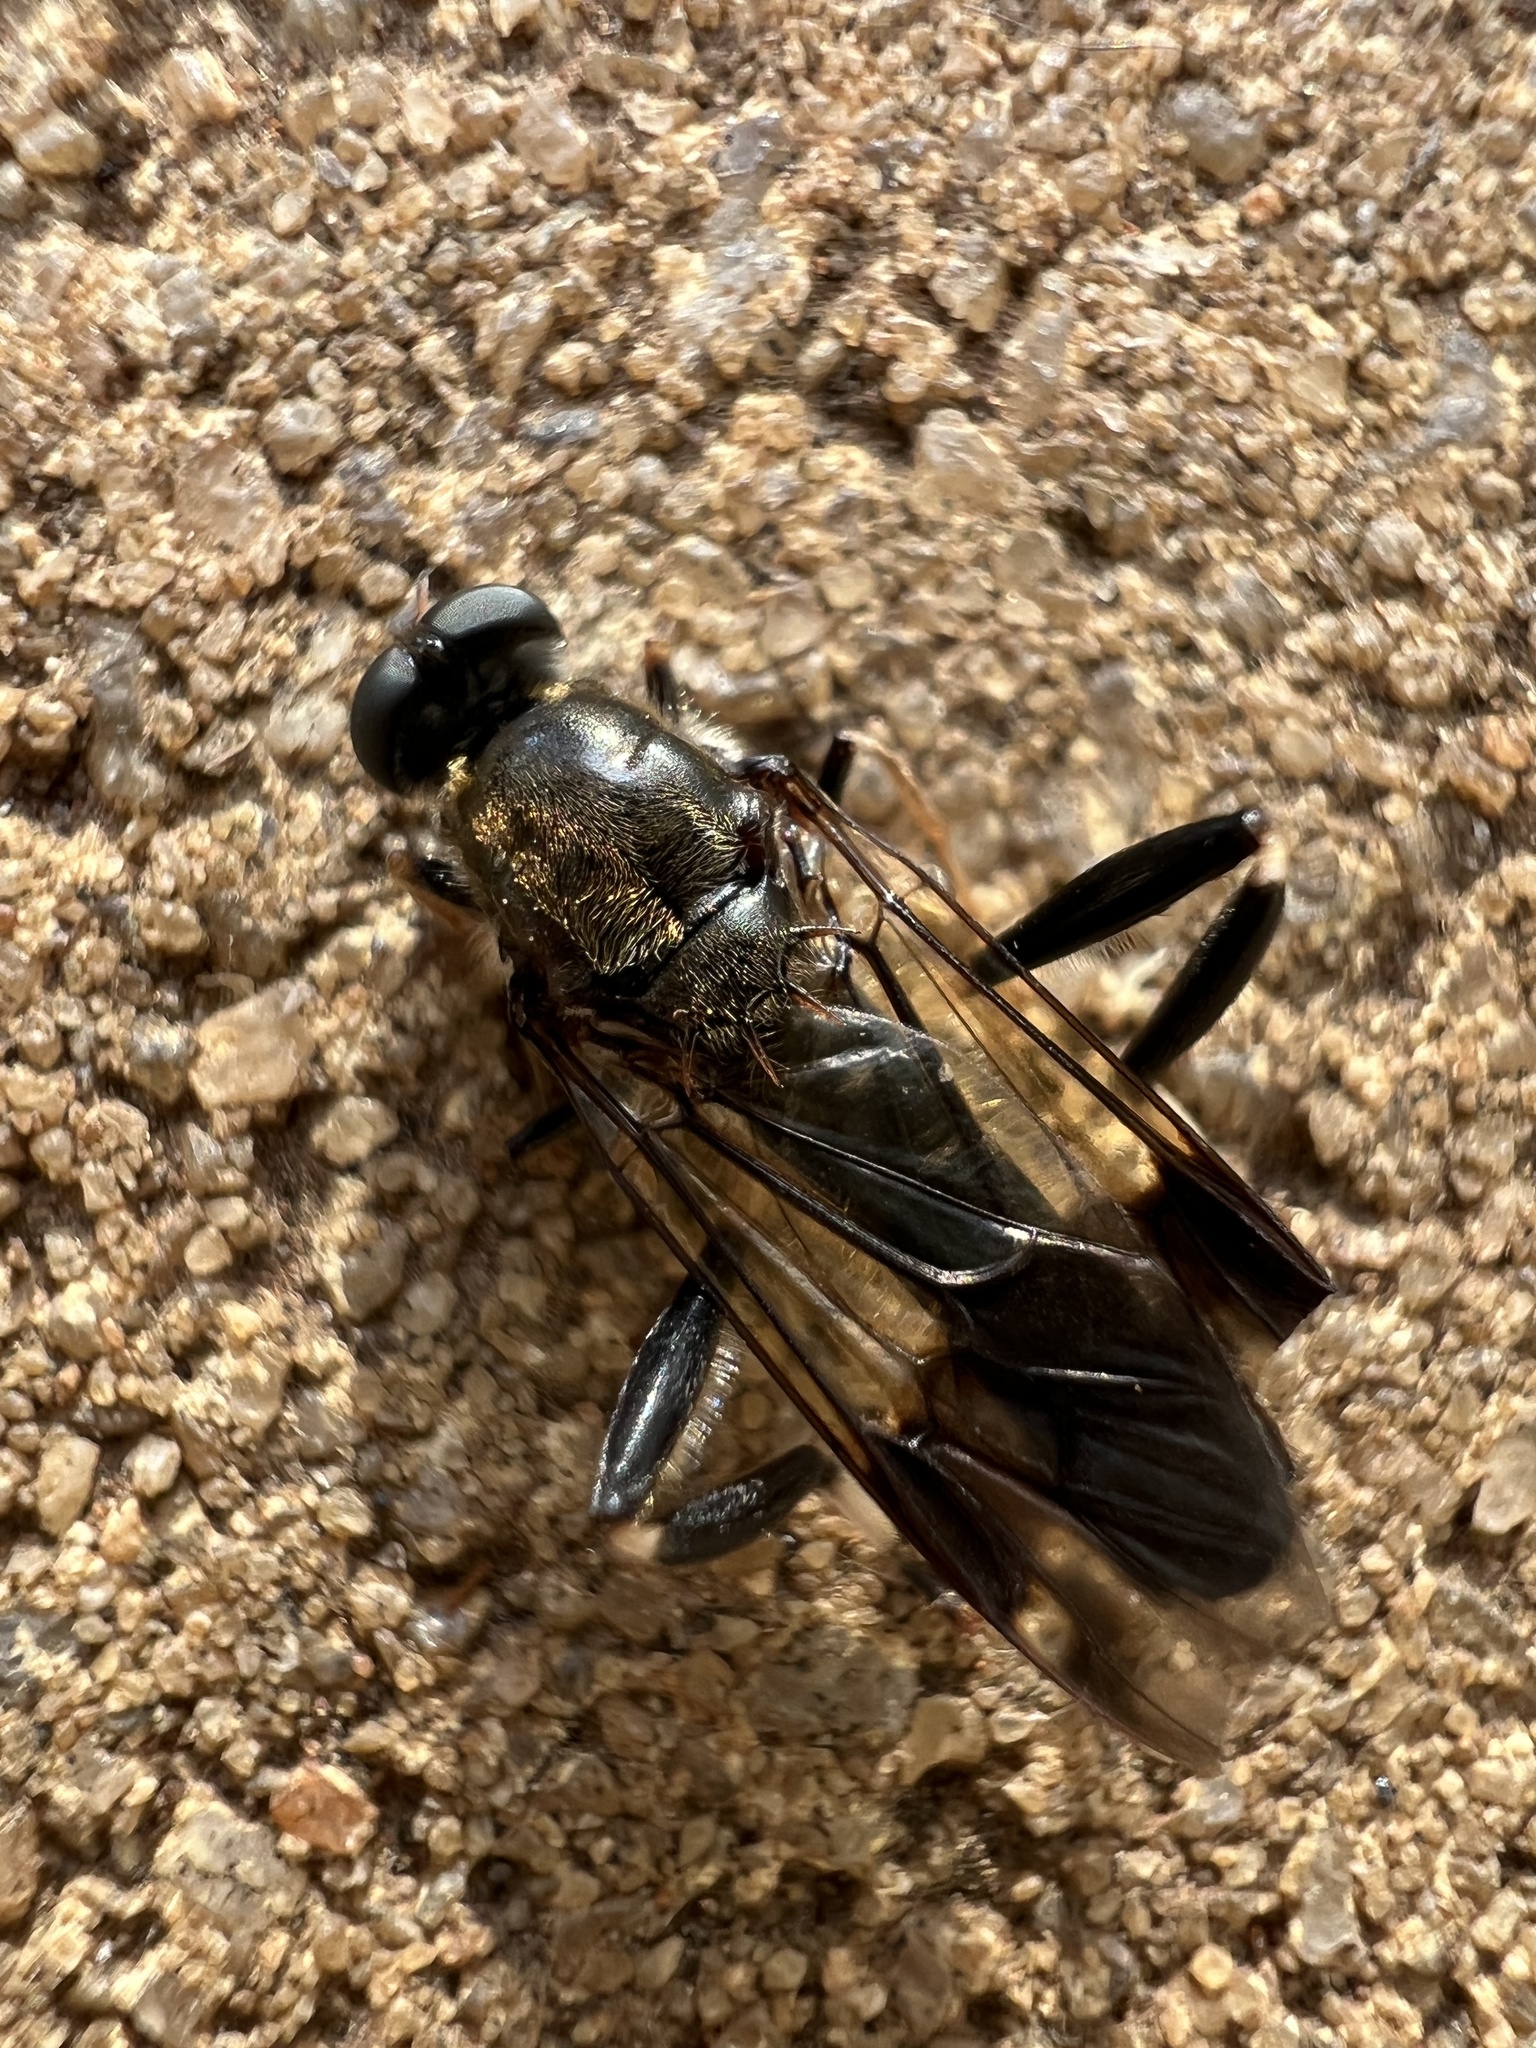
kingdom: Animalia
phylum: Arthropoda
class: Insecta
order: Diptera
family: Stratiomyidae
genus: Exaireta
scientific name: Exaireta spinigera
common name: Blue soldier fly
